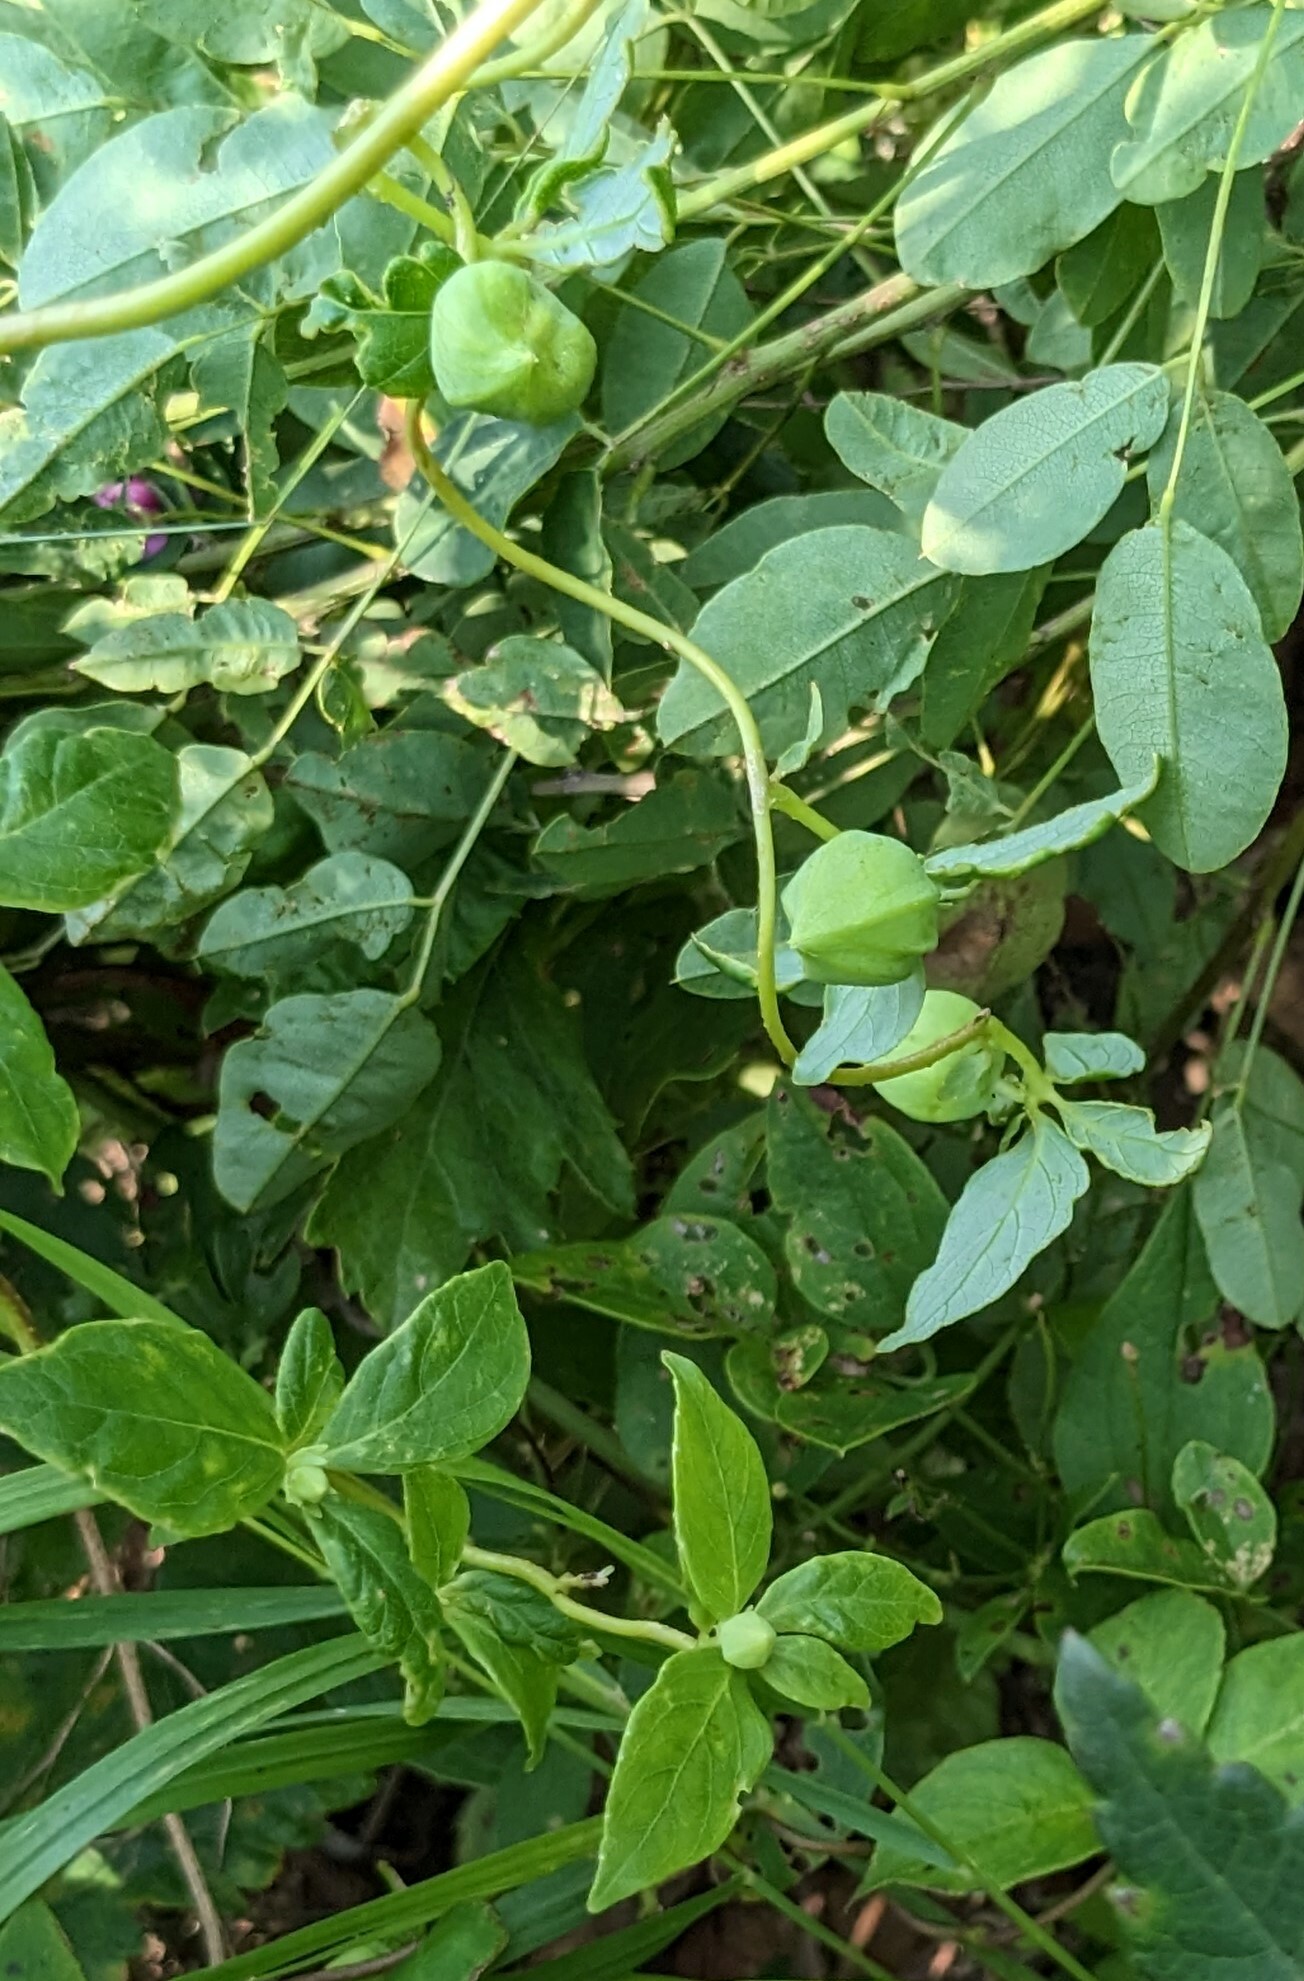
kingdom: Plantae
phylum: Tracheophyta
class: Magnoliopsida
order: Asterales
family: Campanulaceae
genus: Codonopsis
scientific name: Codonopsis lanceolata
